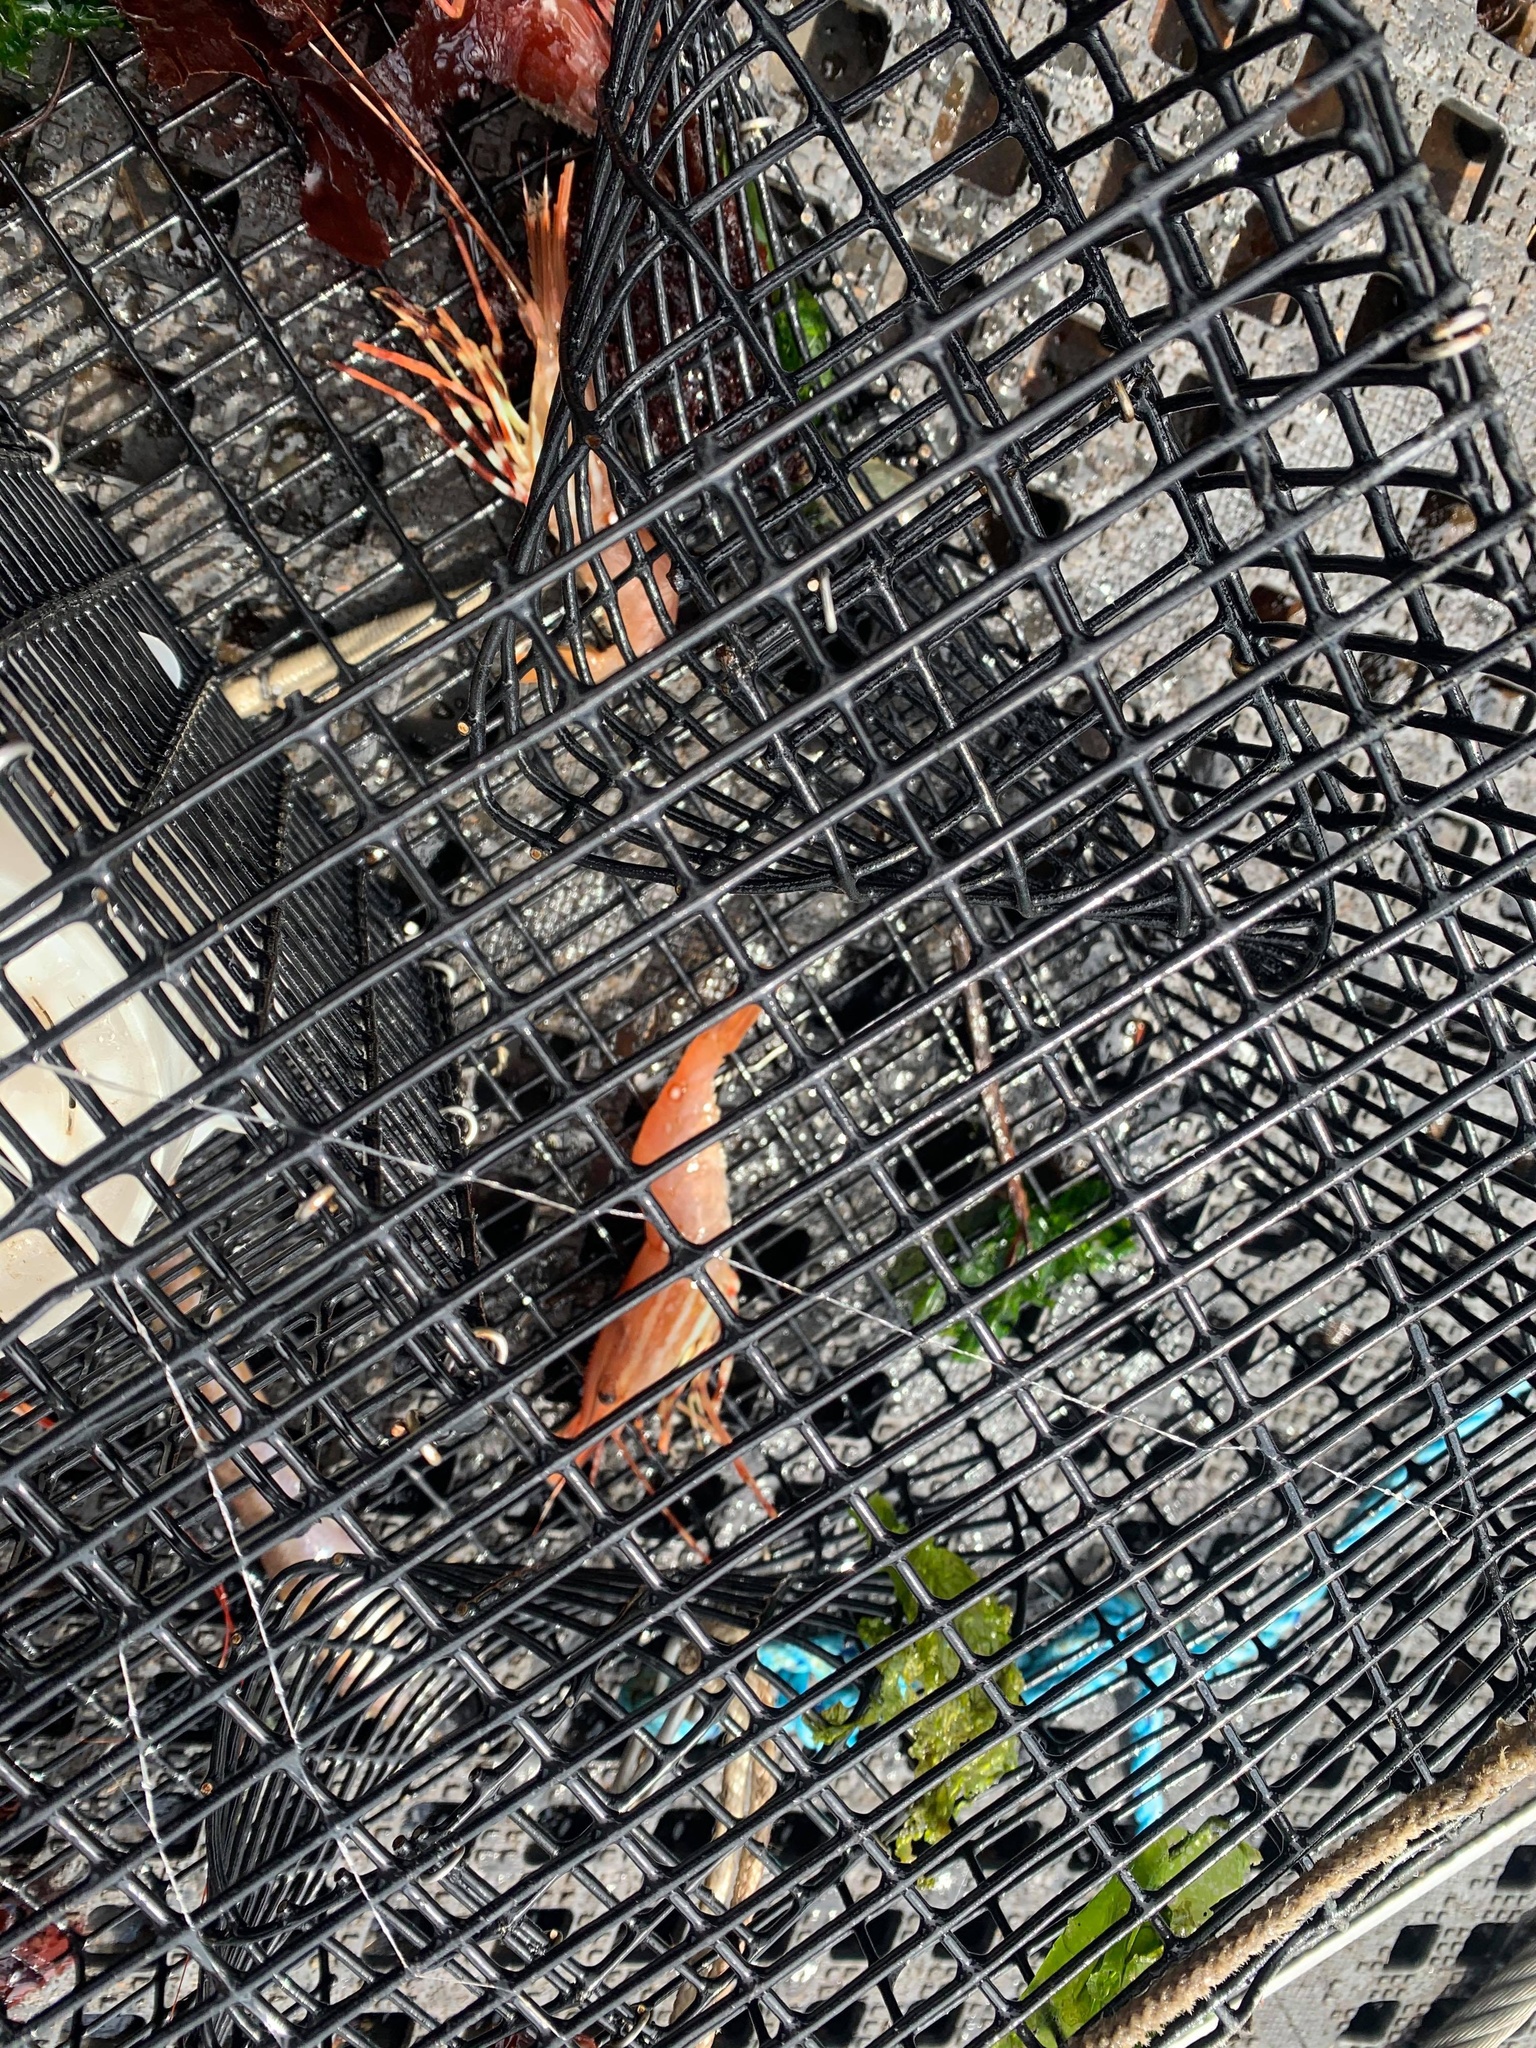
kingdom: Animalia
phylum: Arthropoda
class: Malacostraca
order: Decapoda
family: Pandalidae
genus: Pandalus
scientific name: Pandalus platyceros
